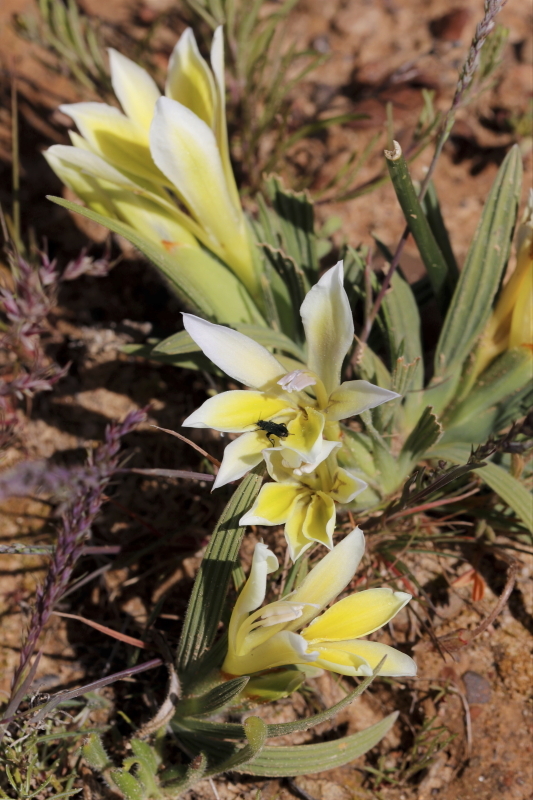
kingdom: Plantae
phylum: Tracheophyta
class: Liliopsida
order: Asparagales
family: Iridaceae
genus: Babiana
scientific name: Babiana vanzijliae
